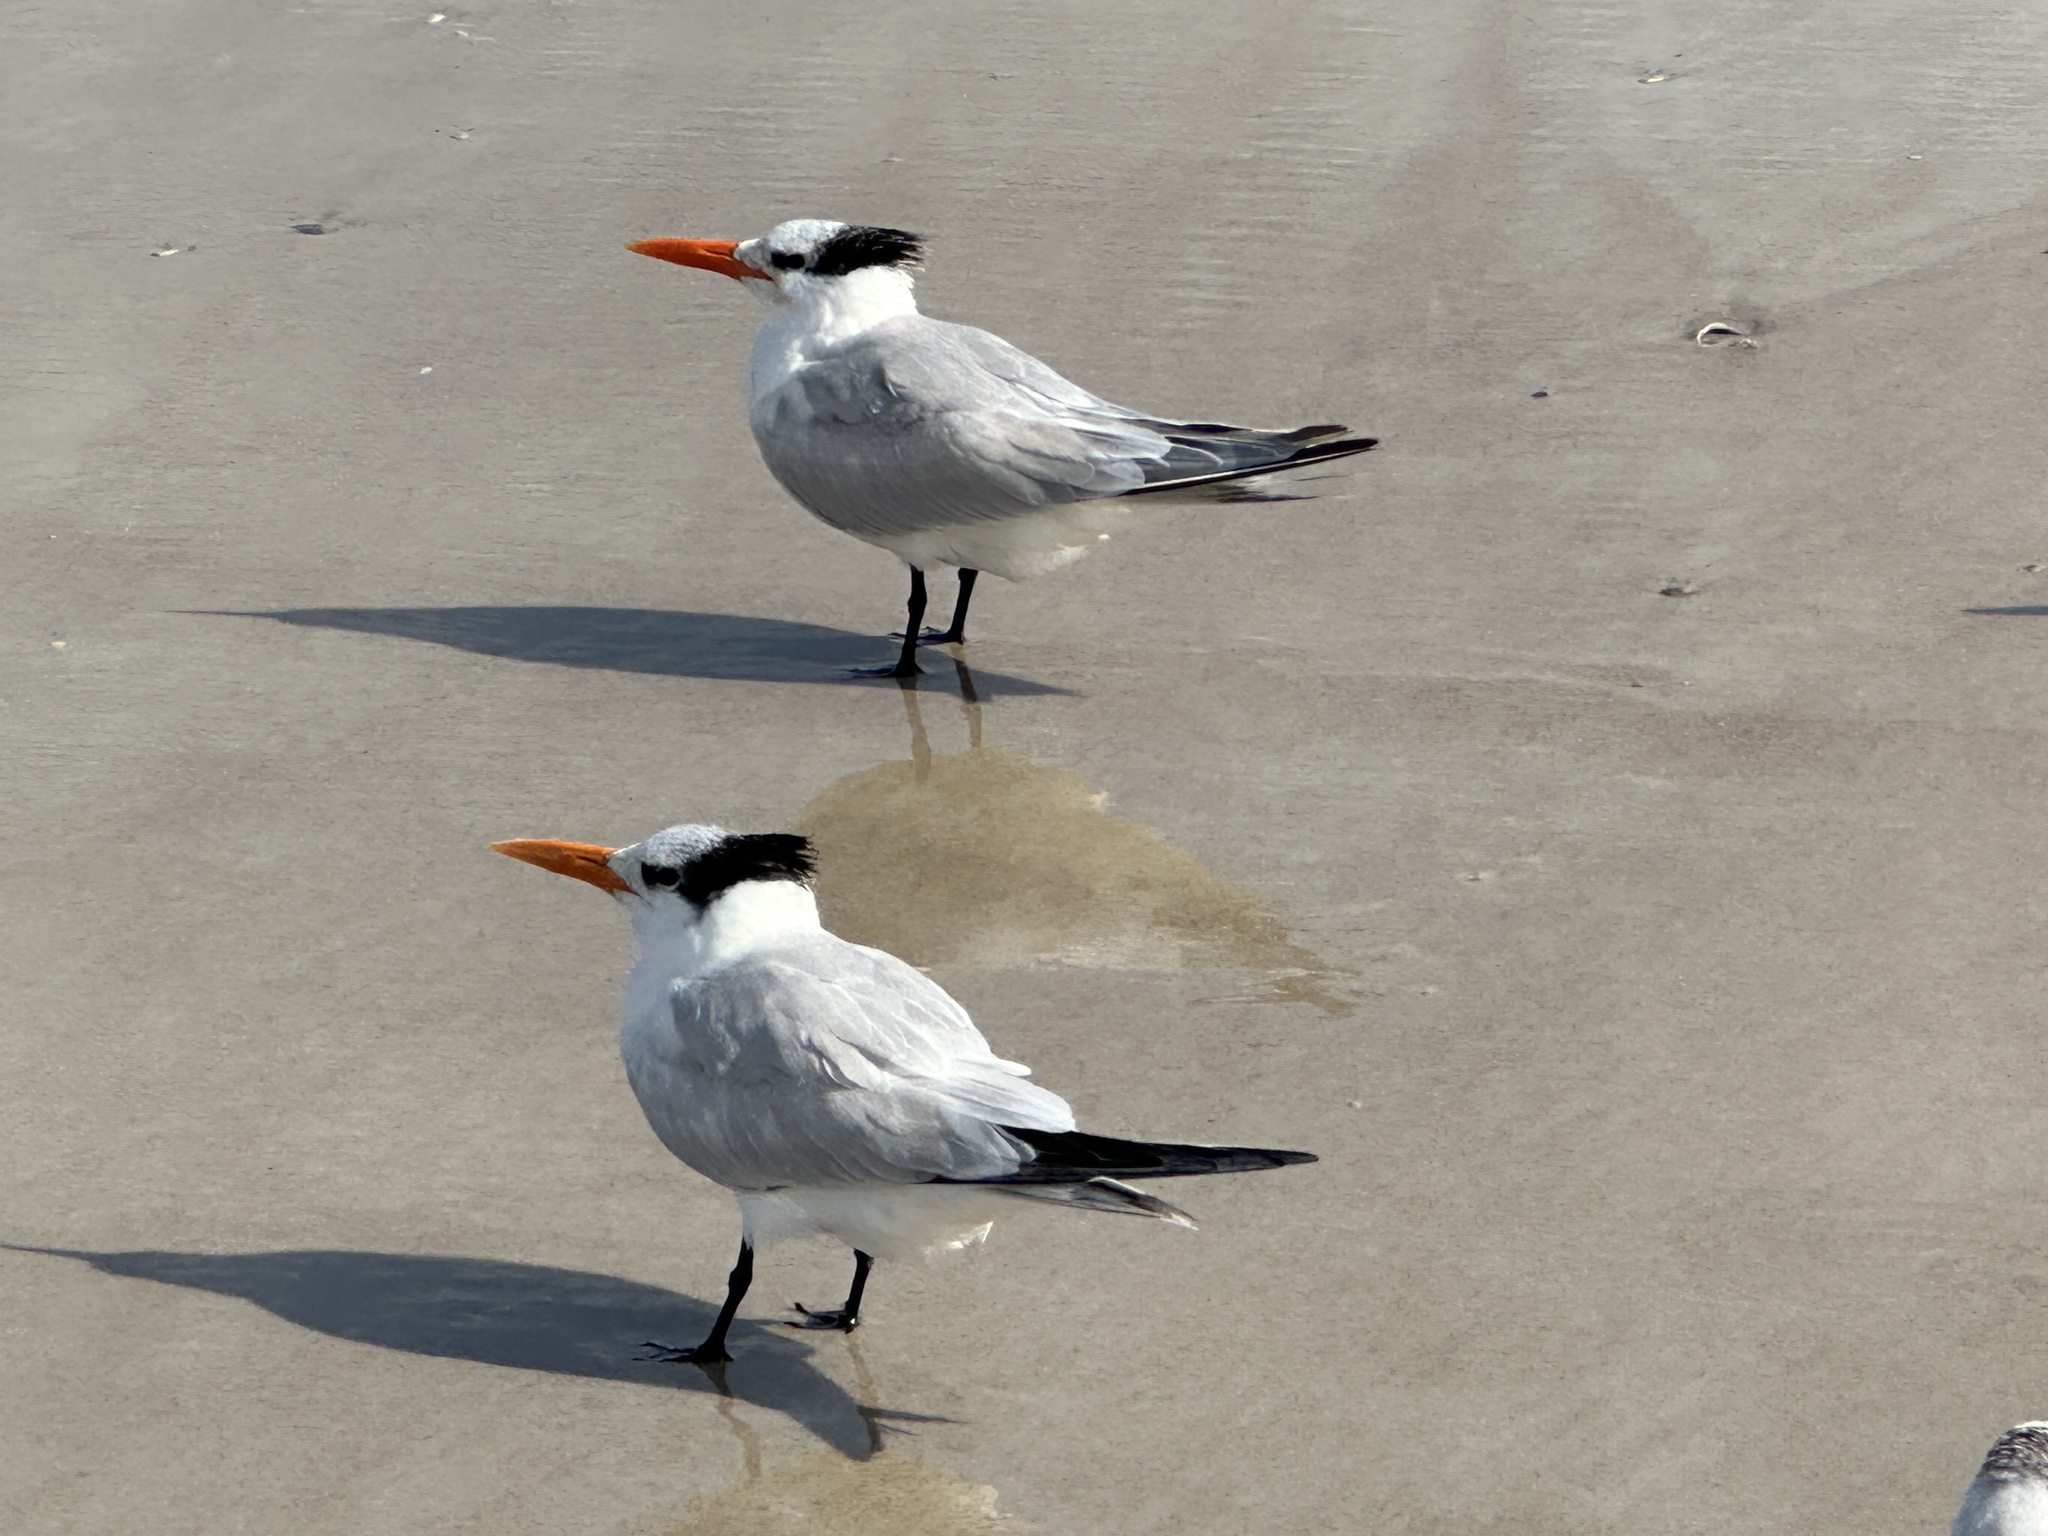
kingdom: Animalia
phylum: Chordata
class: Aves
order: Charadriiformes
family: Laridae
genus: Thalasseus
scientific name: Thalasseus maximus
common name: Royal tern
